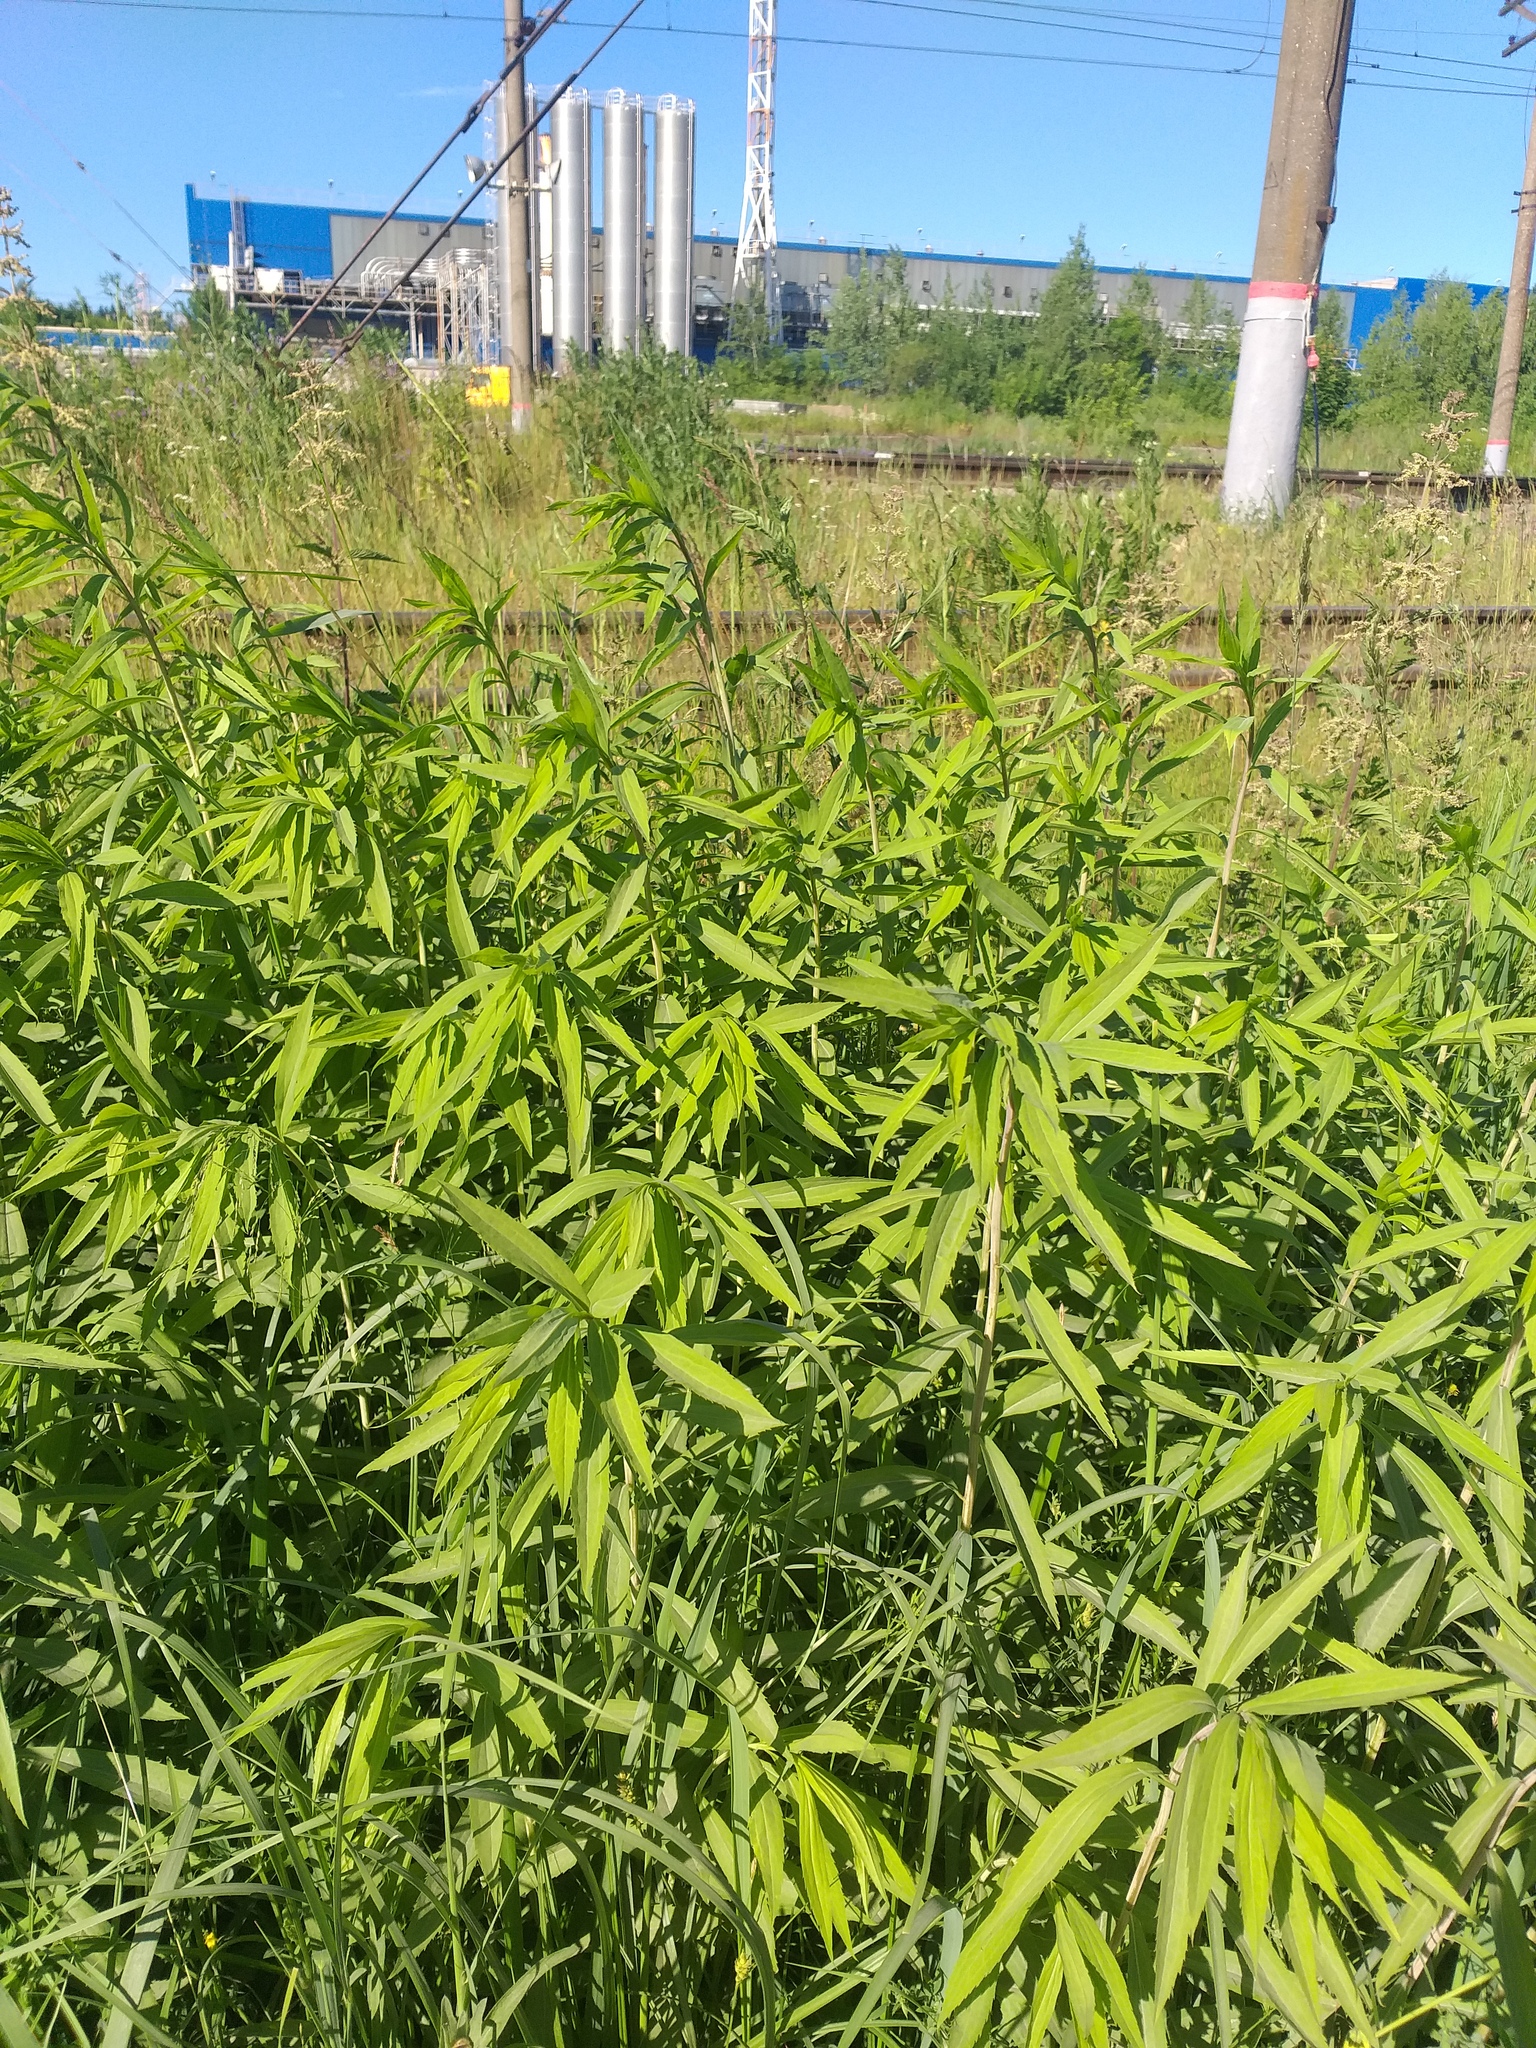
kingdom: Plantae
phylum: Tracheophyta
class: Magnoliopsida
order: Asterales
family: Asteraceae
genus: Solidago
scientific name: Solidago gigantea
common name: Giant goldenrod
